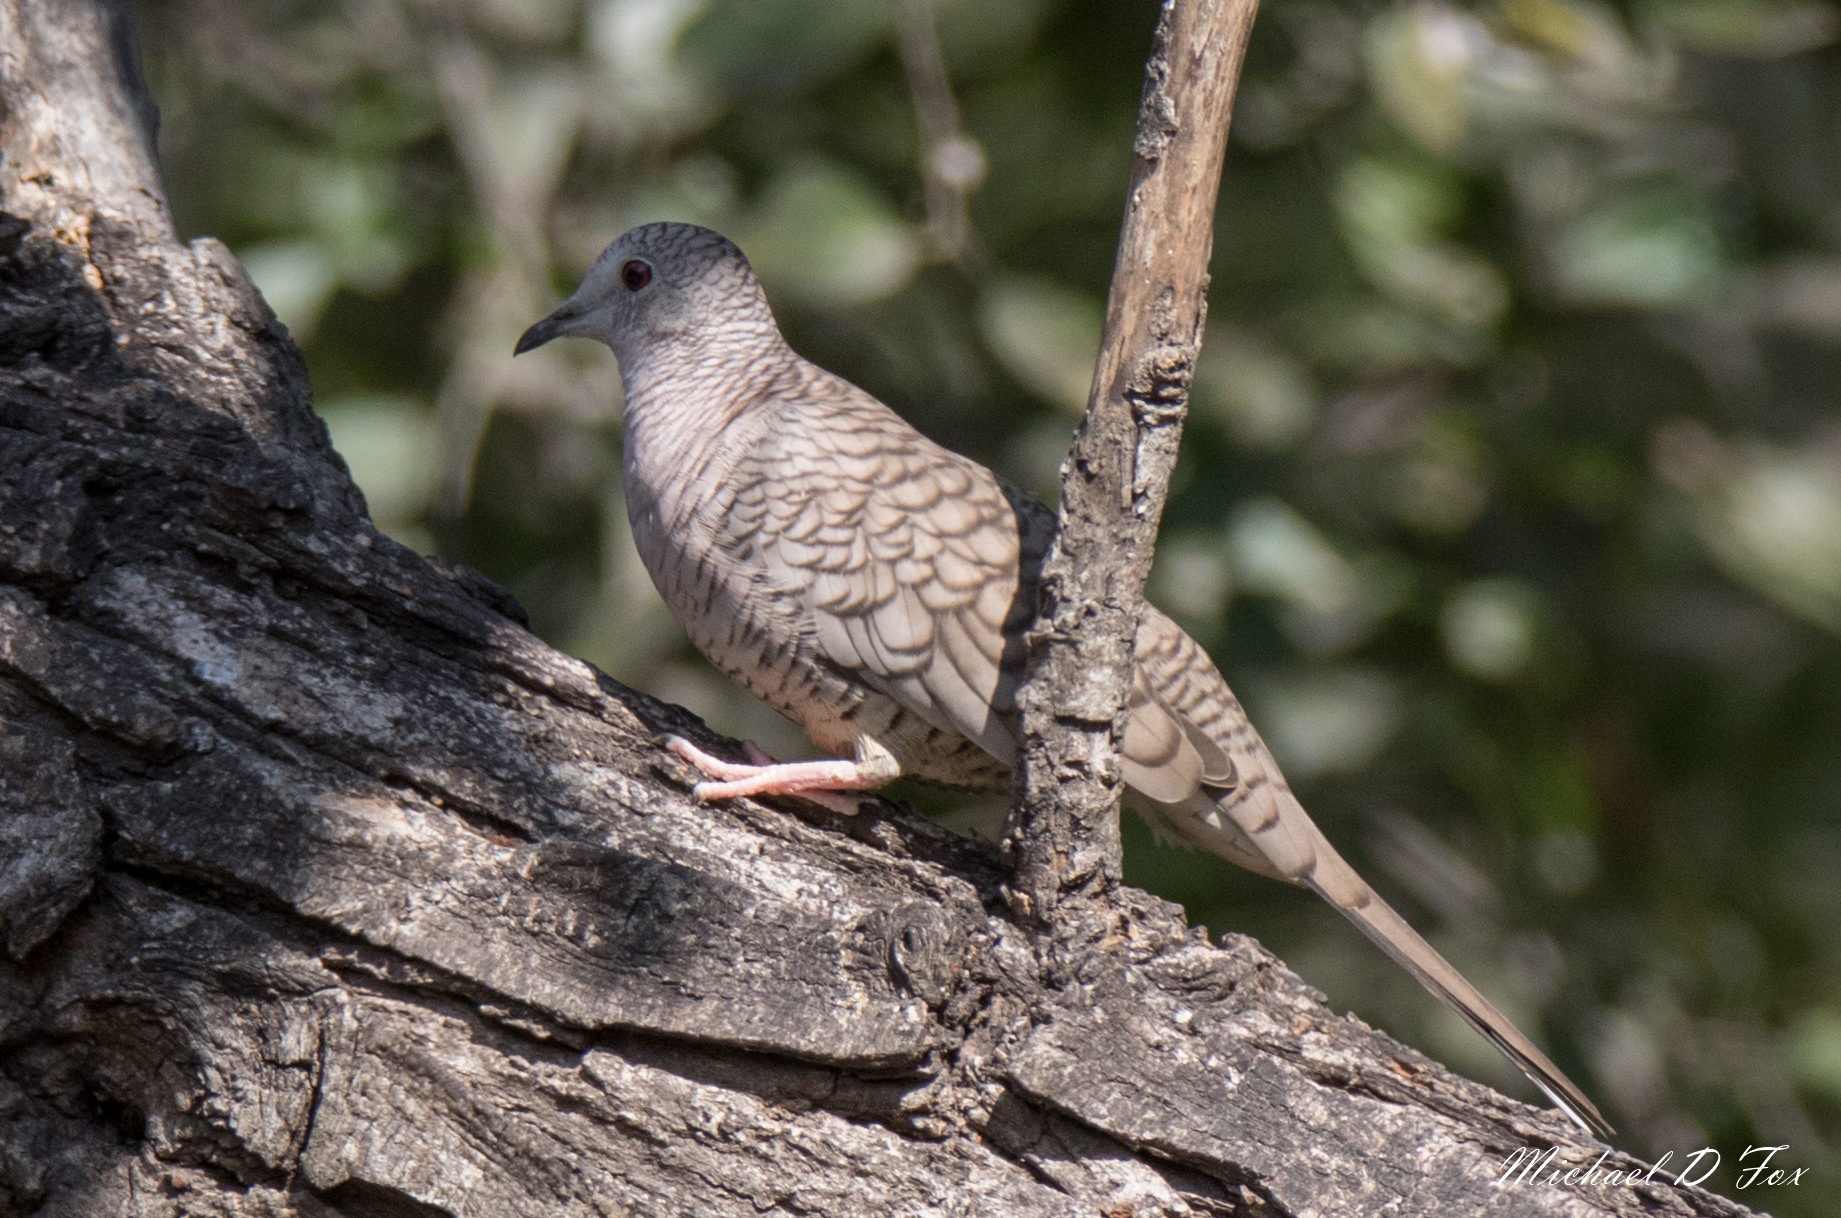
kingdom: Animalia
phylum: Chordata
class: Aves
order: Columbiformes
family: Columbidae
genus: Columbina
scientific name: Columbina inca
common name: Inca dove
